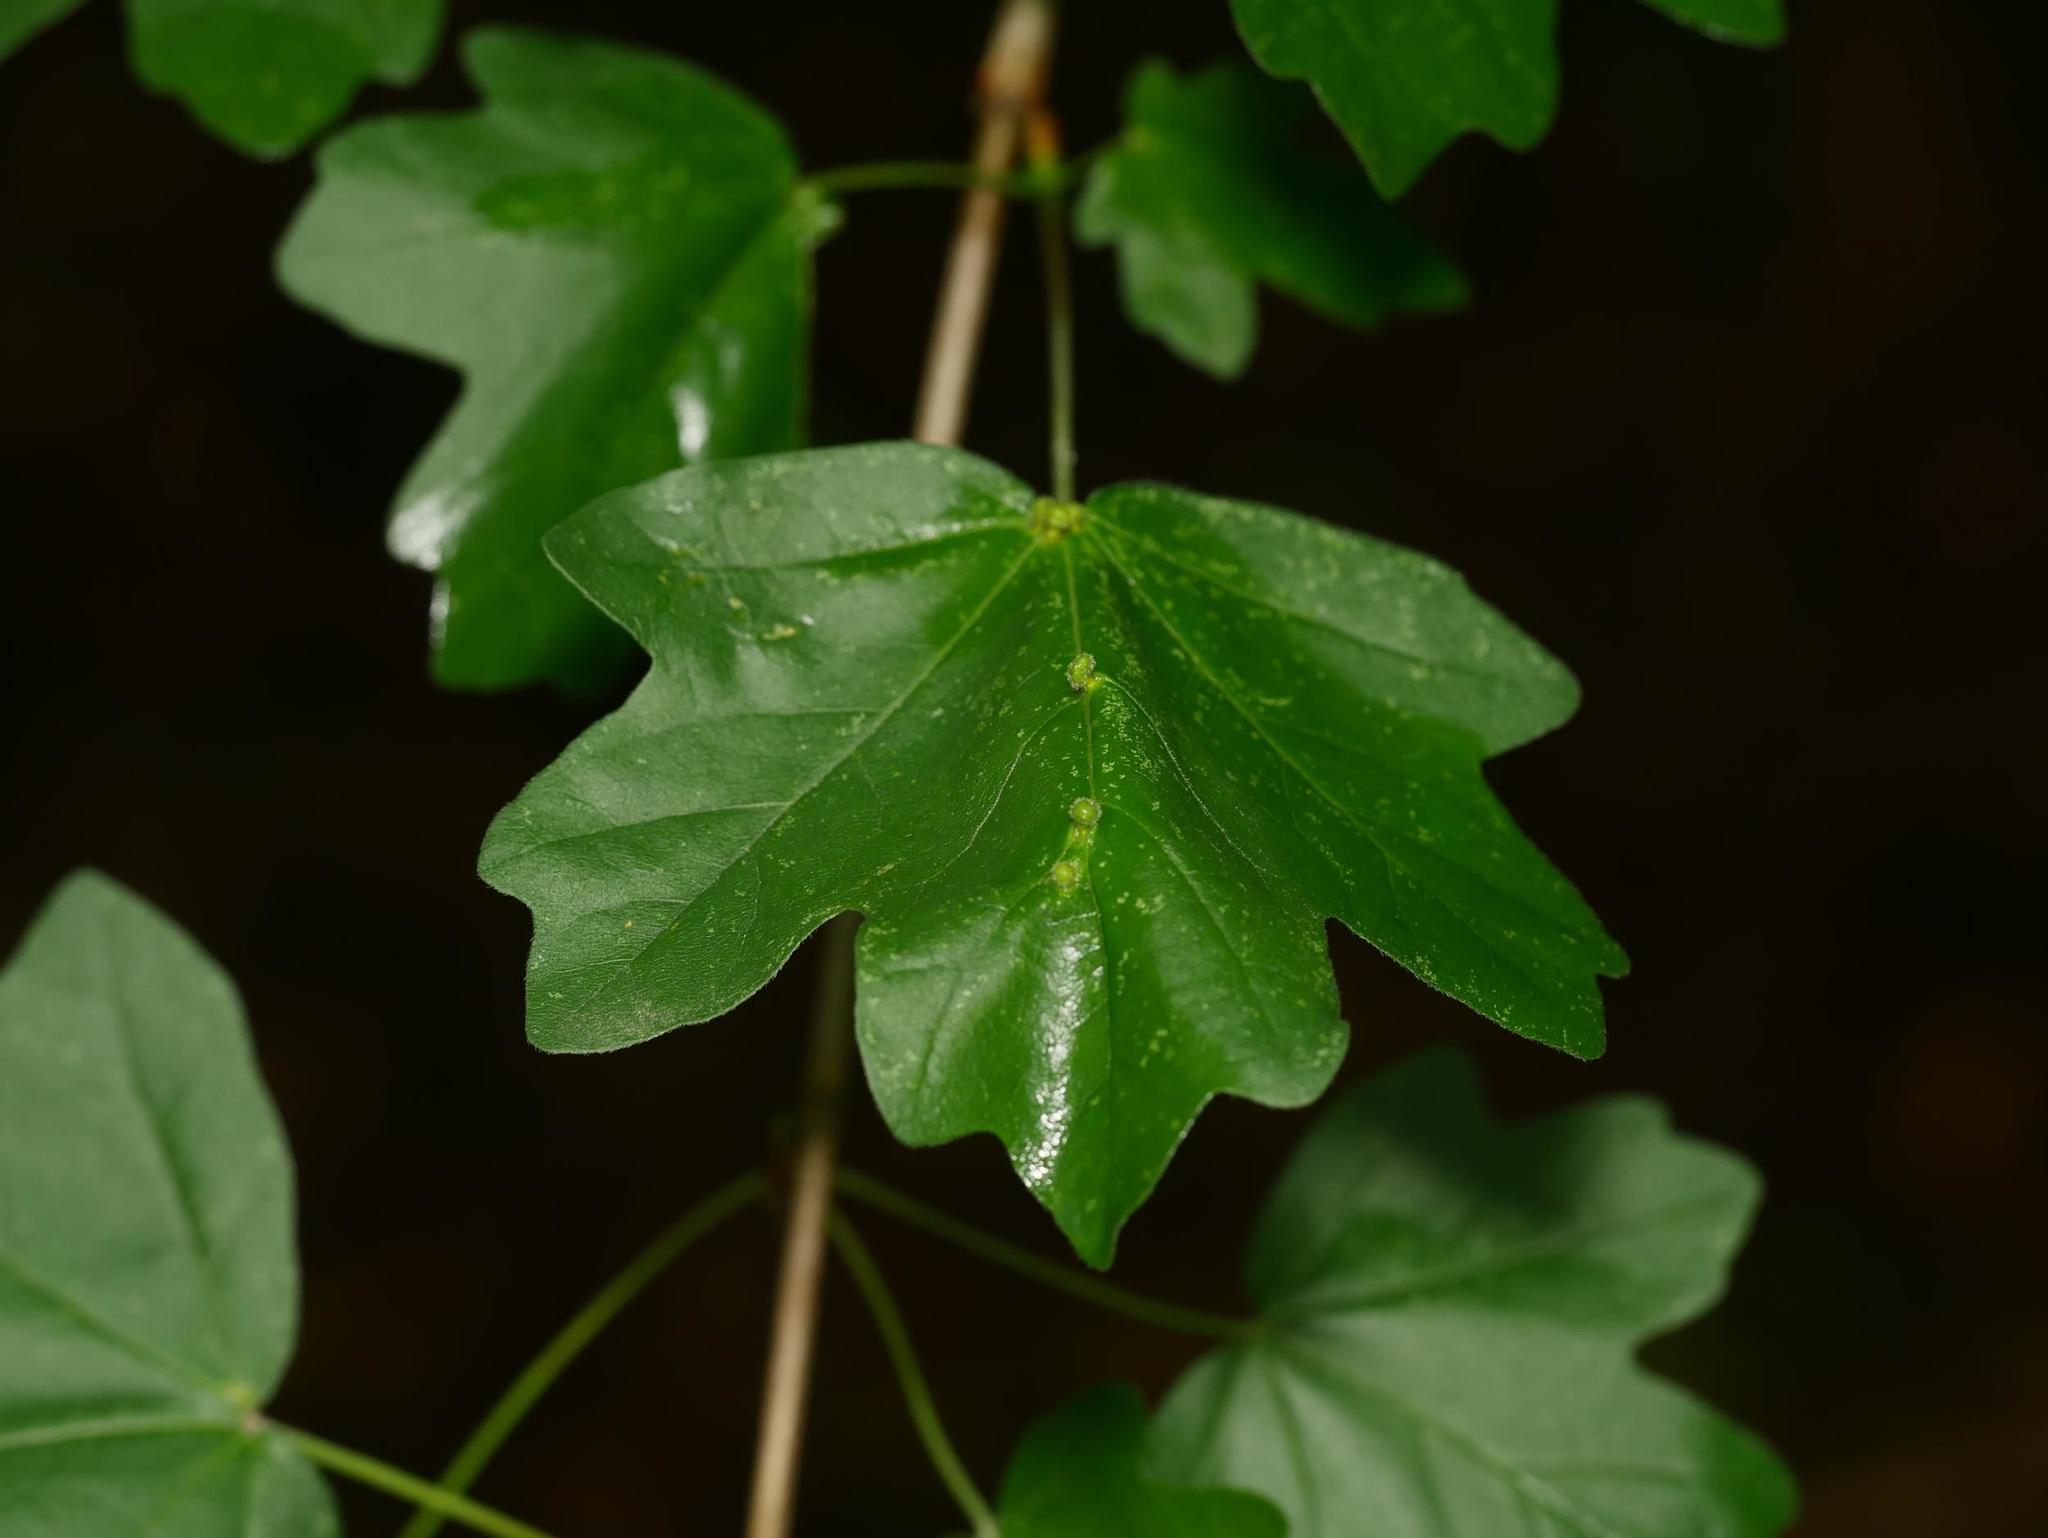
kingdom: Plantae
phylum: Tracheophyta
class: Magnoliopsida
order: Sapindales
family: Sapindaceae
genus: Acer
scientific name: Acer campestre
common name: Field maple
